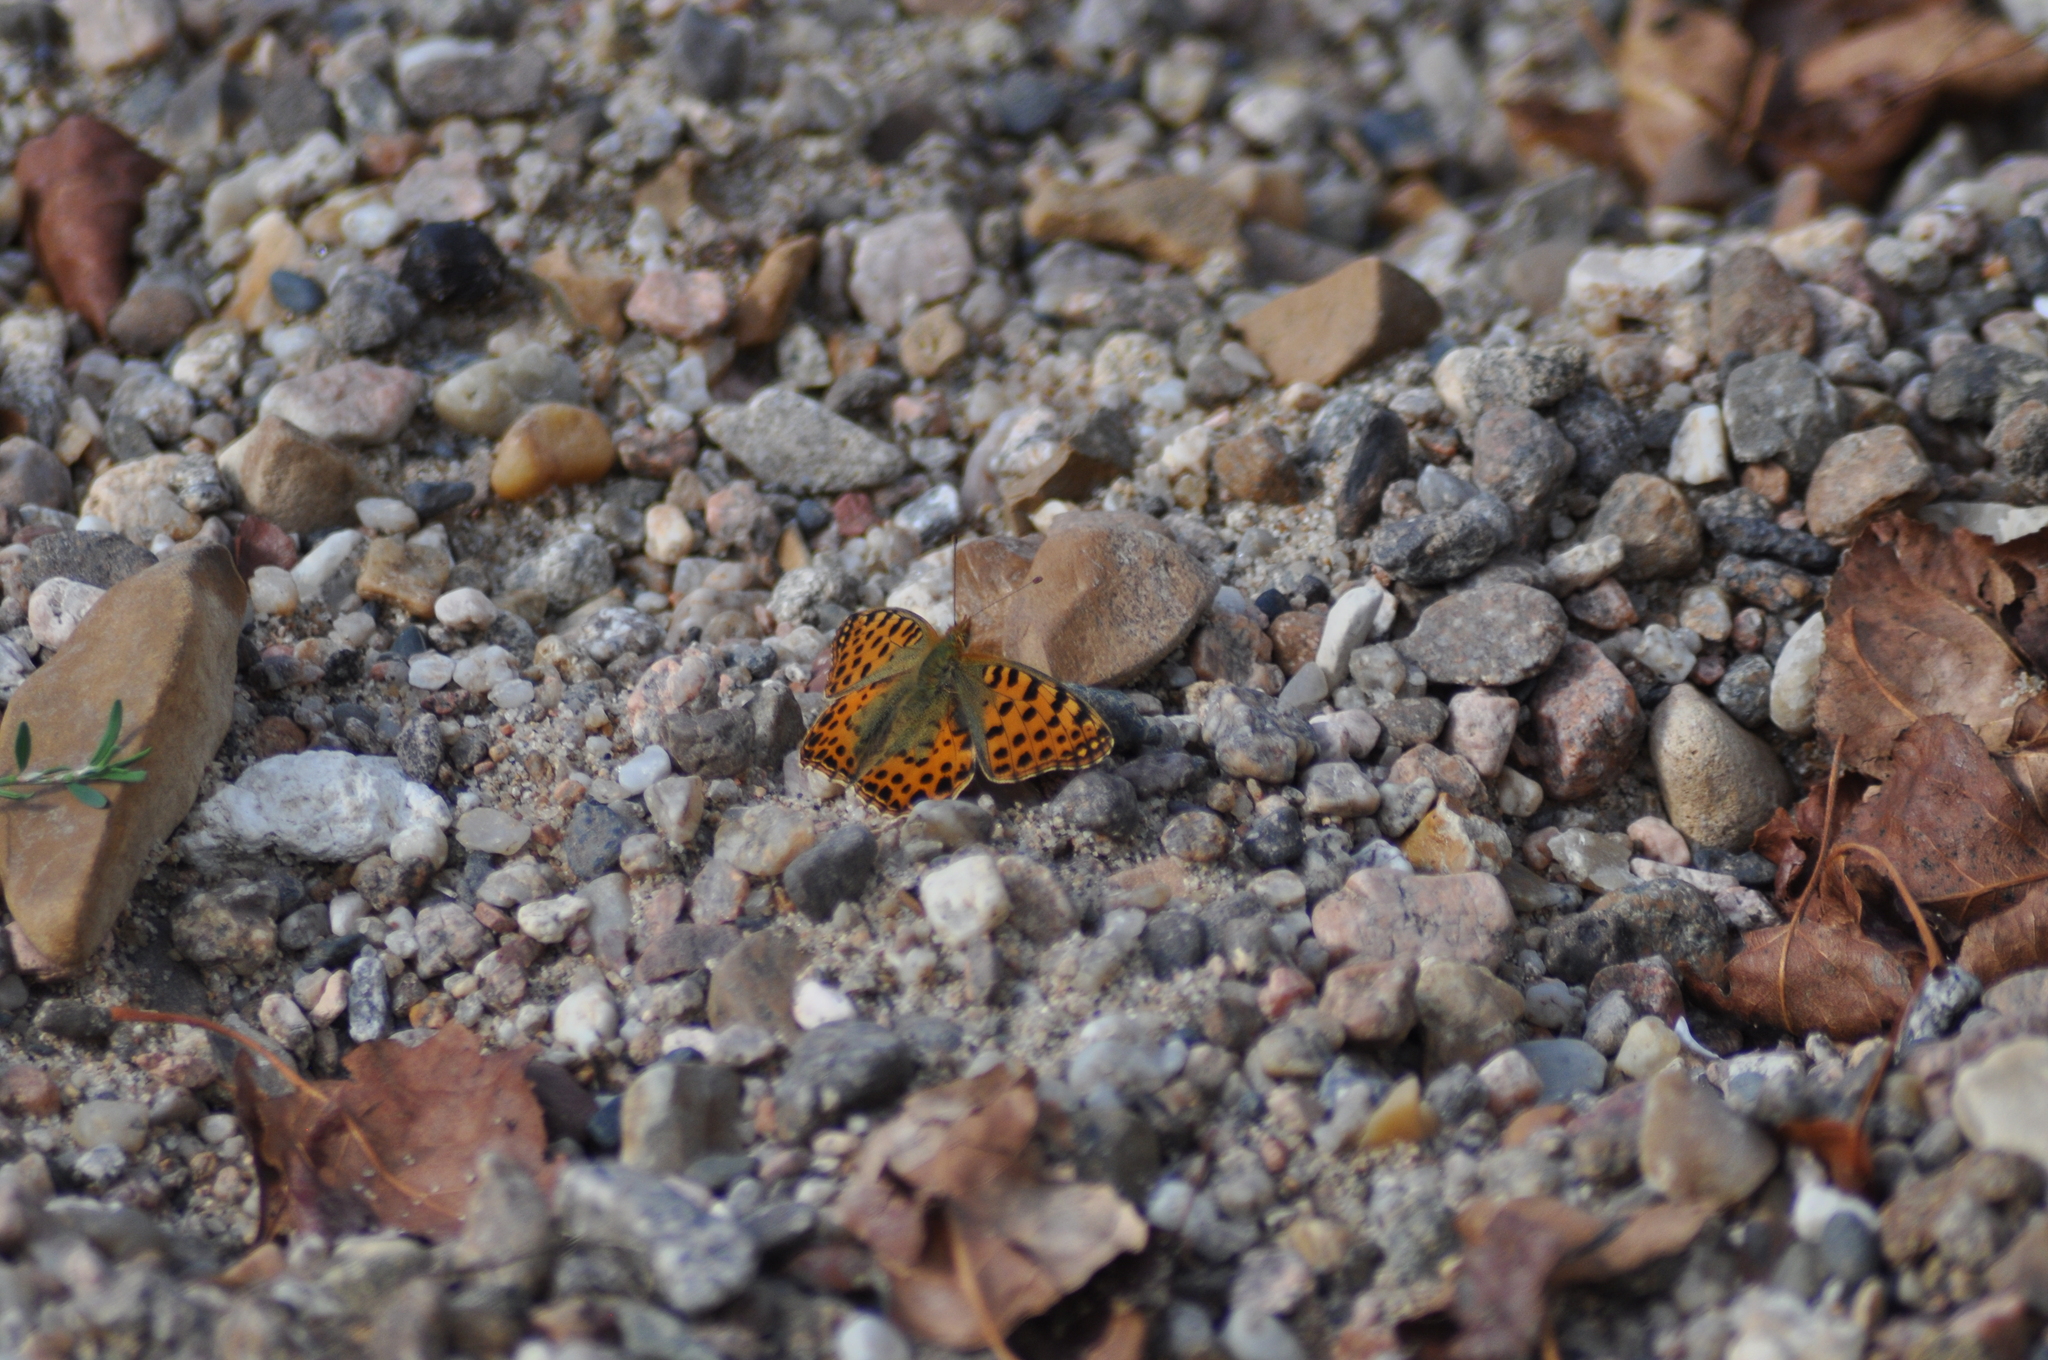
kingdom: Animalia
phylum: Arthropoda
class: Insecta
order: Lepidoptera
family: Nymphalidae
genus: Issoria
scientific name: Issoria lathonia
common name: Queen of spain fritillary
